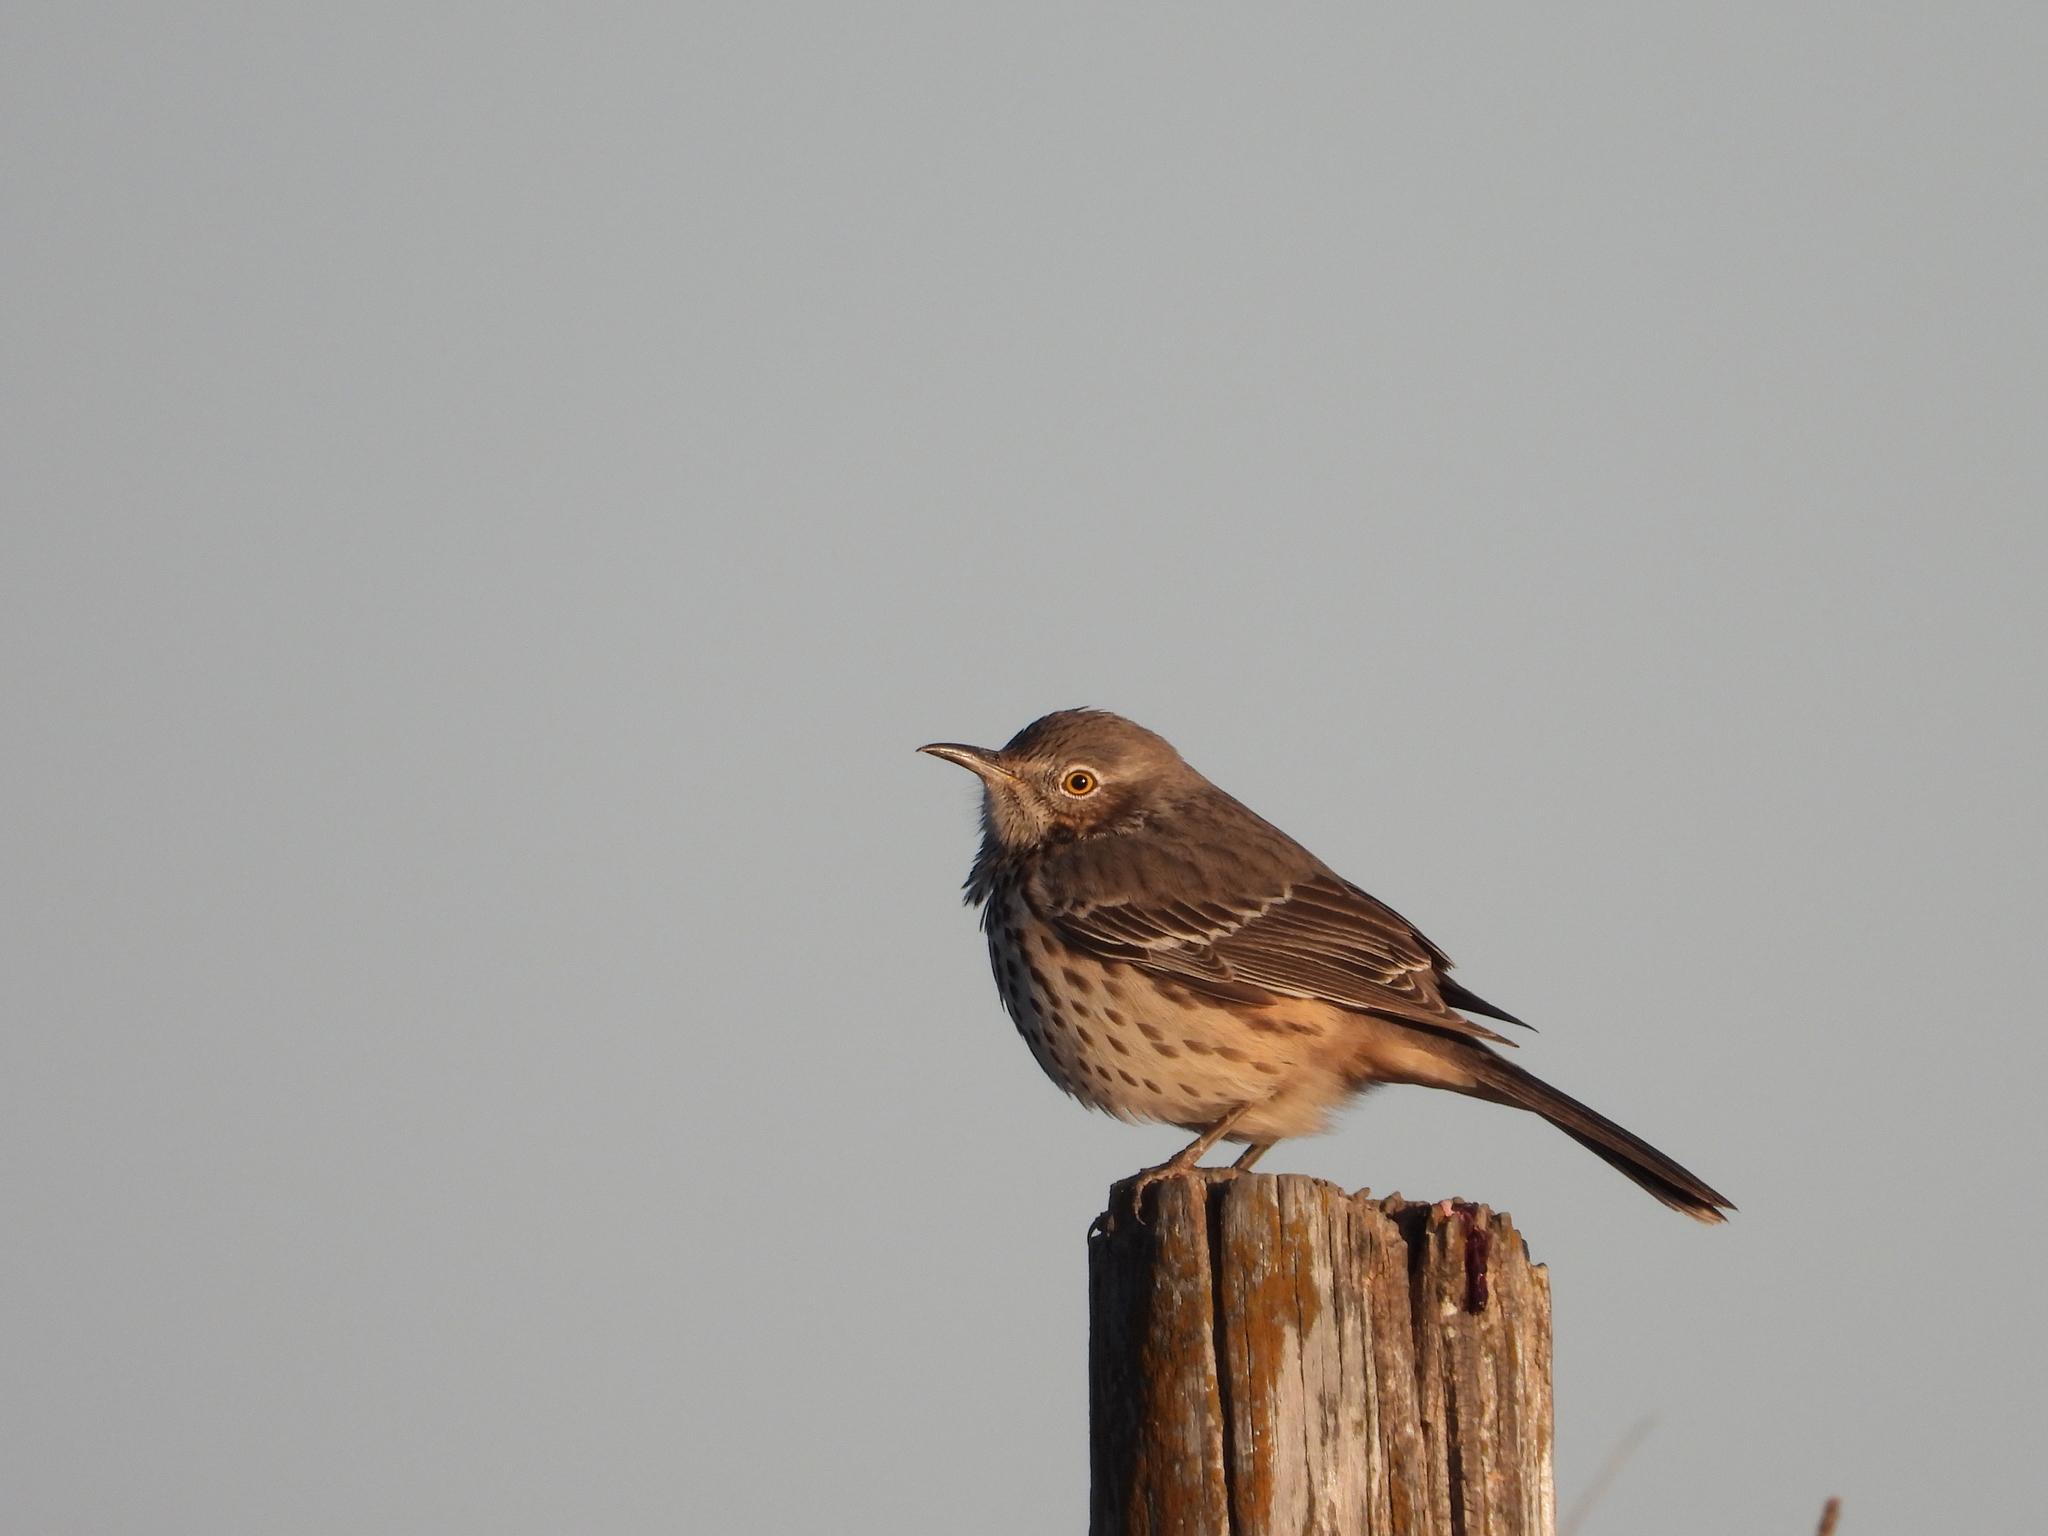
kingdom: Animalia
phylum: Chordata
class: Aves
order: Passeriformes
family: Mimidae
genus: Oreoscoptes
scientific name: Oreoscoptes montanus
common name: Sage thrasher
